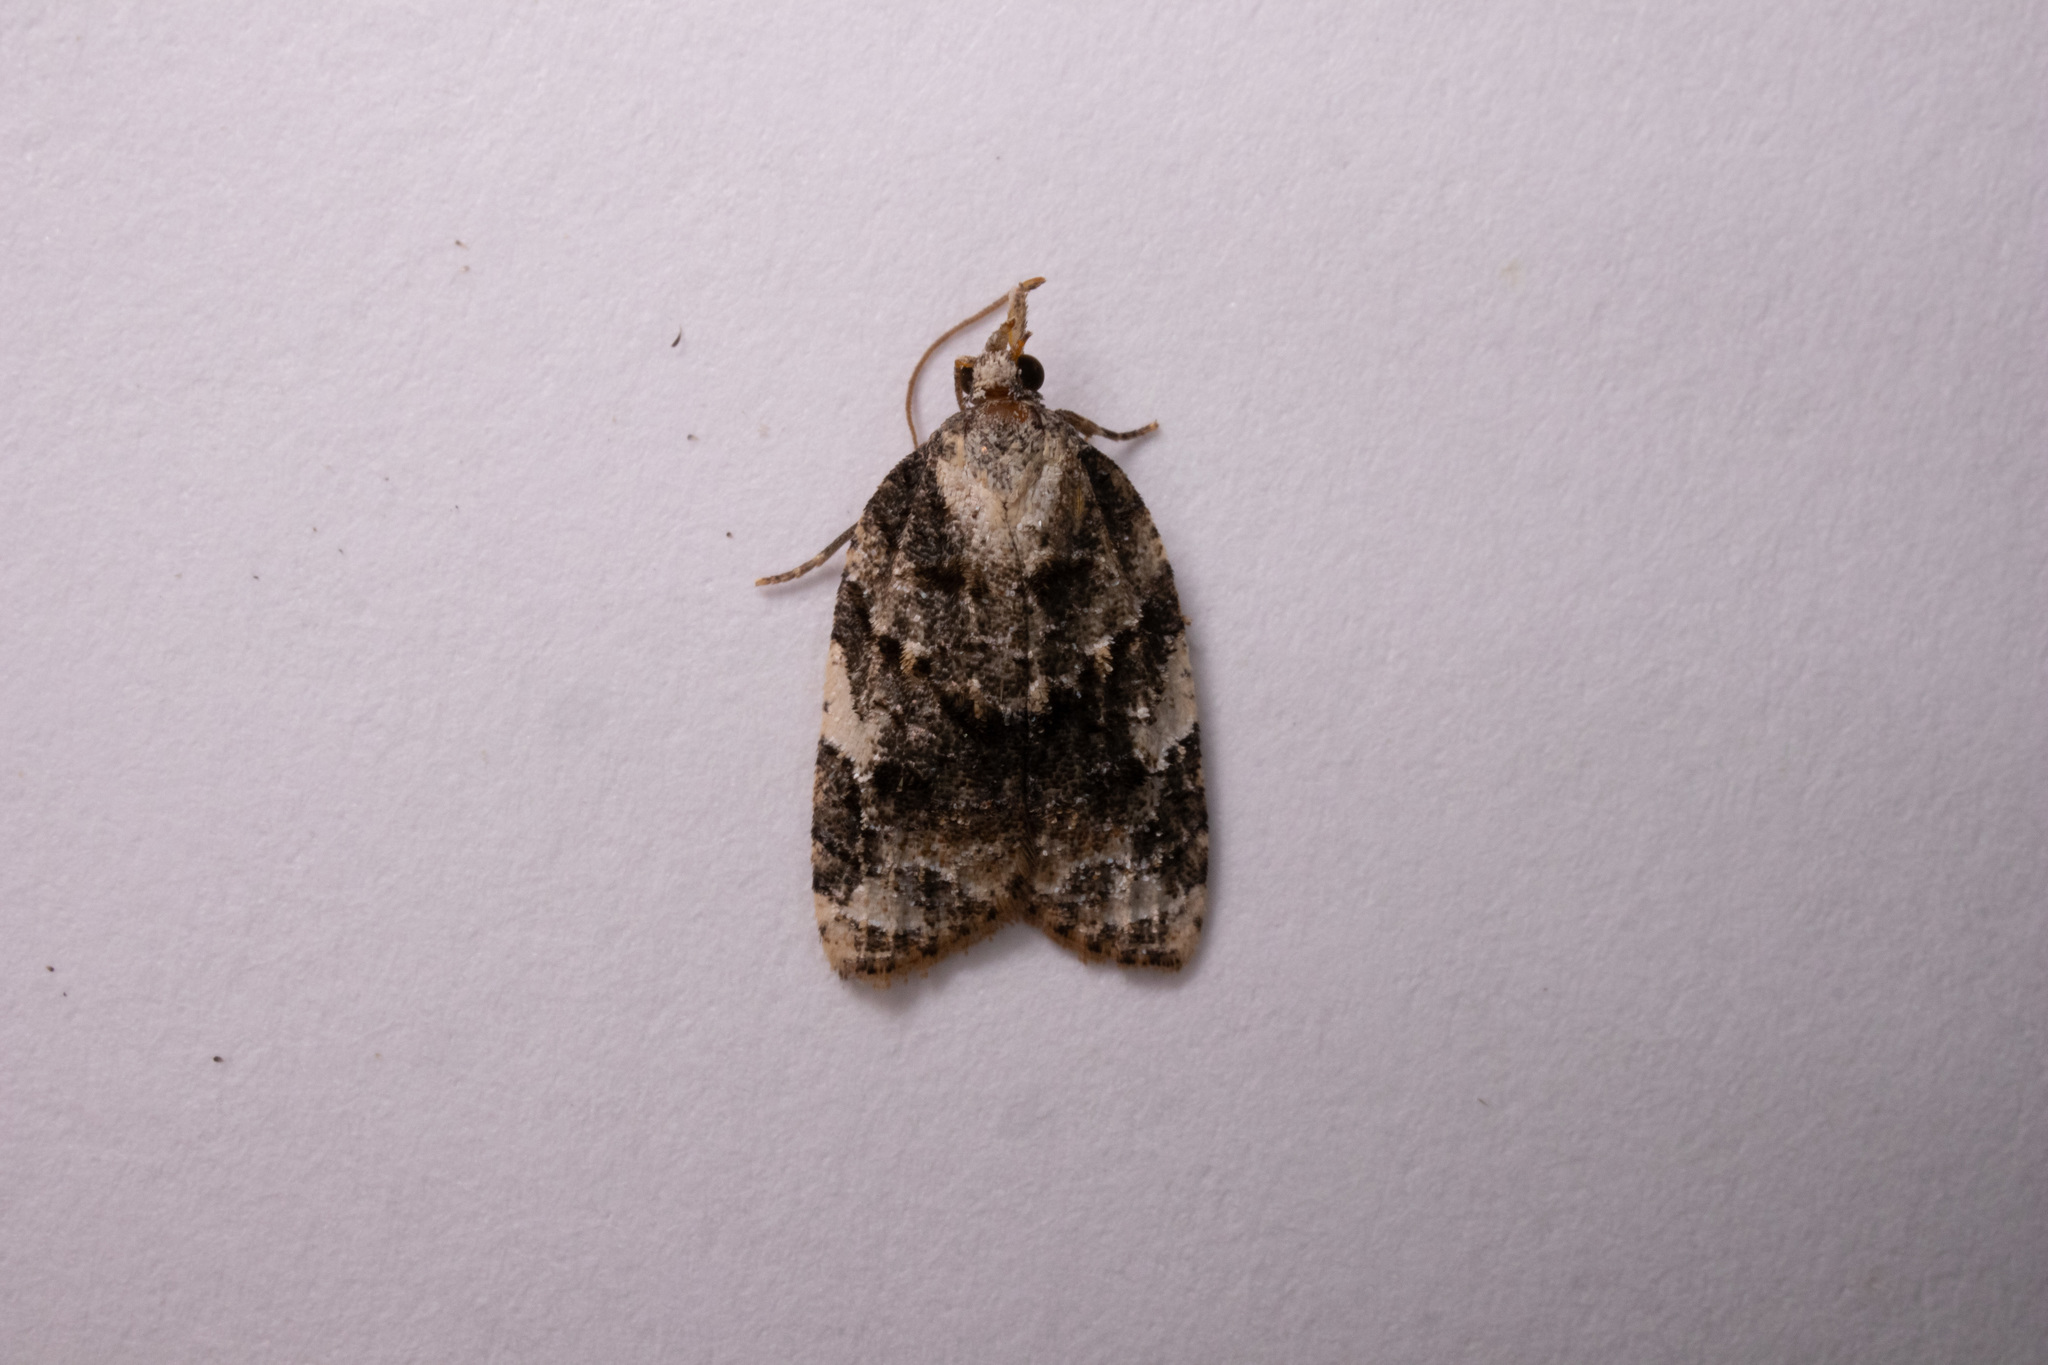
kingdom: Animalia
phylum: Arthropoda
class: Insecta
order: Lepidoptera
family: Tortricidae
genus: Platynota
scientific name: Platynota exasperatana
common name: Exasperating platynota moth
